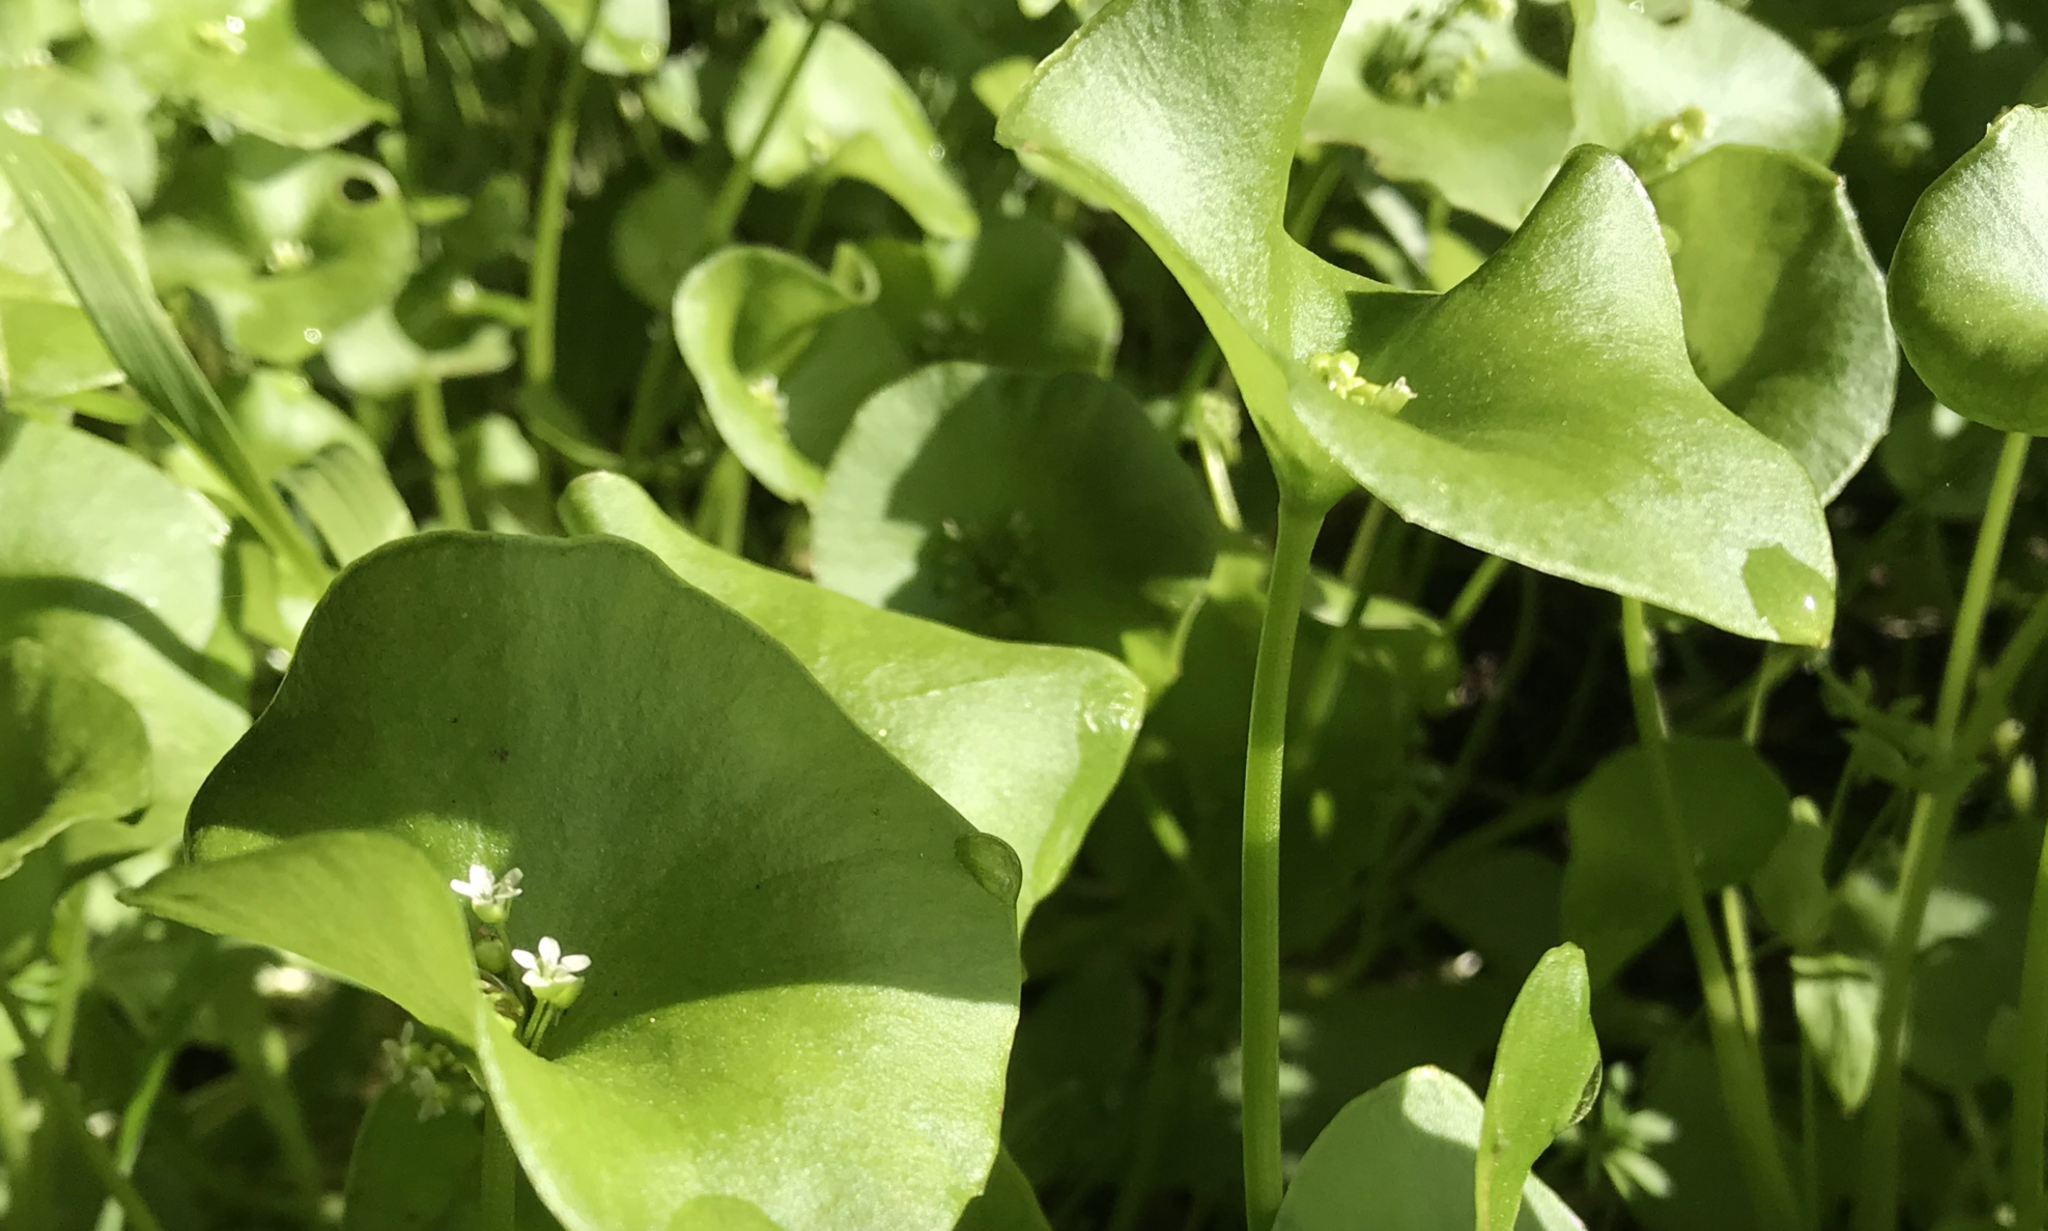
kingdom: Plantae
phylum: Tracheophyta
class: Magnoliopsida
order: Caryophyllales
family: Montiaceae
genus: Claytonia
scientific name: Claytonia perfoliata
